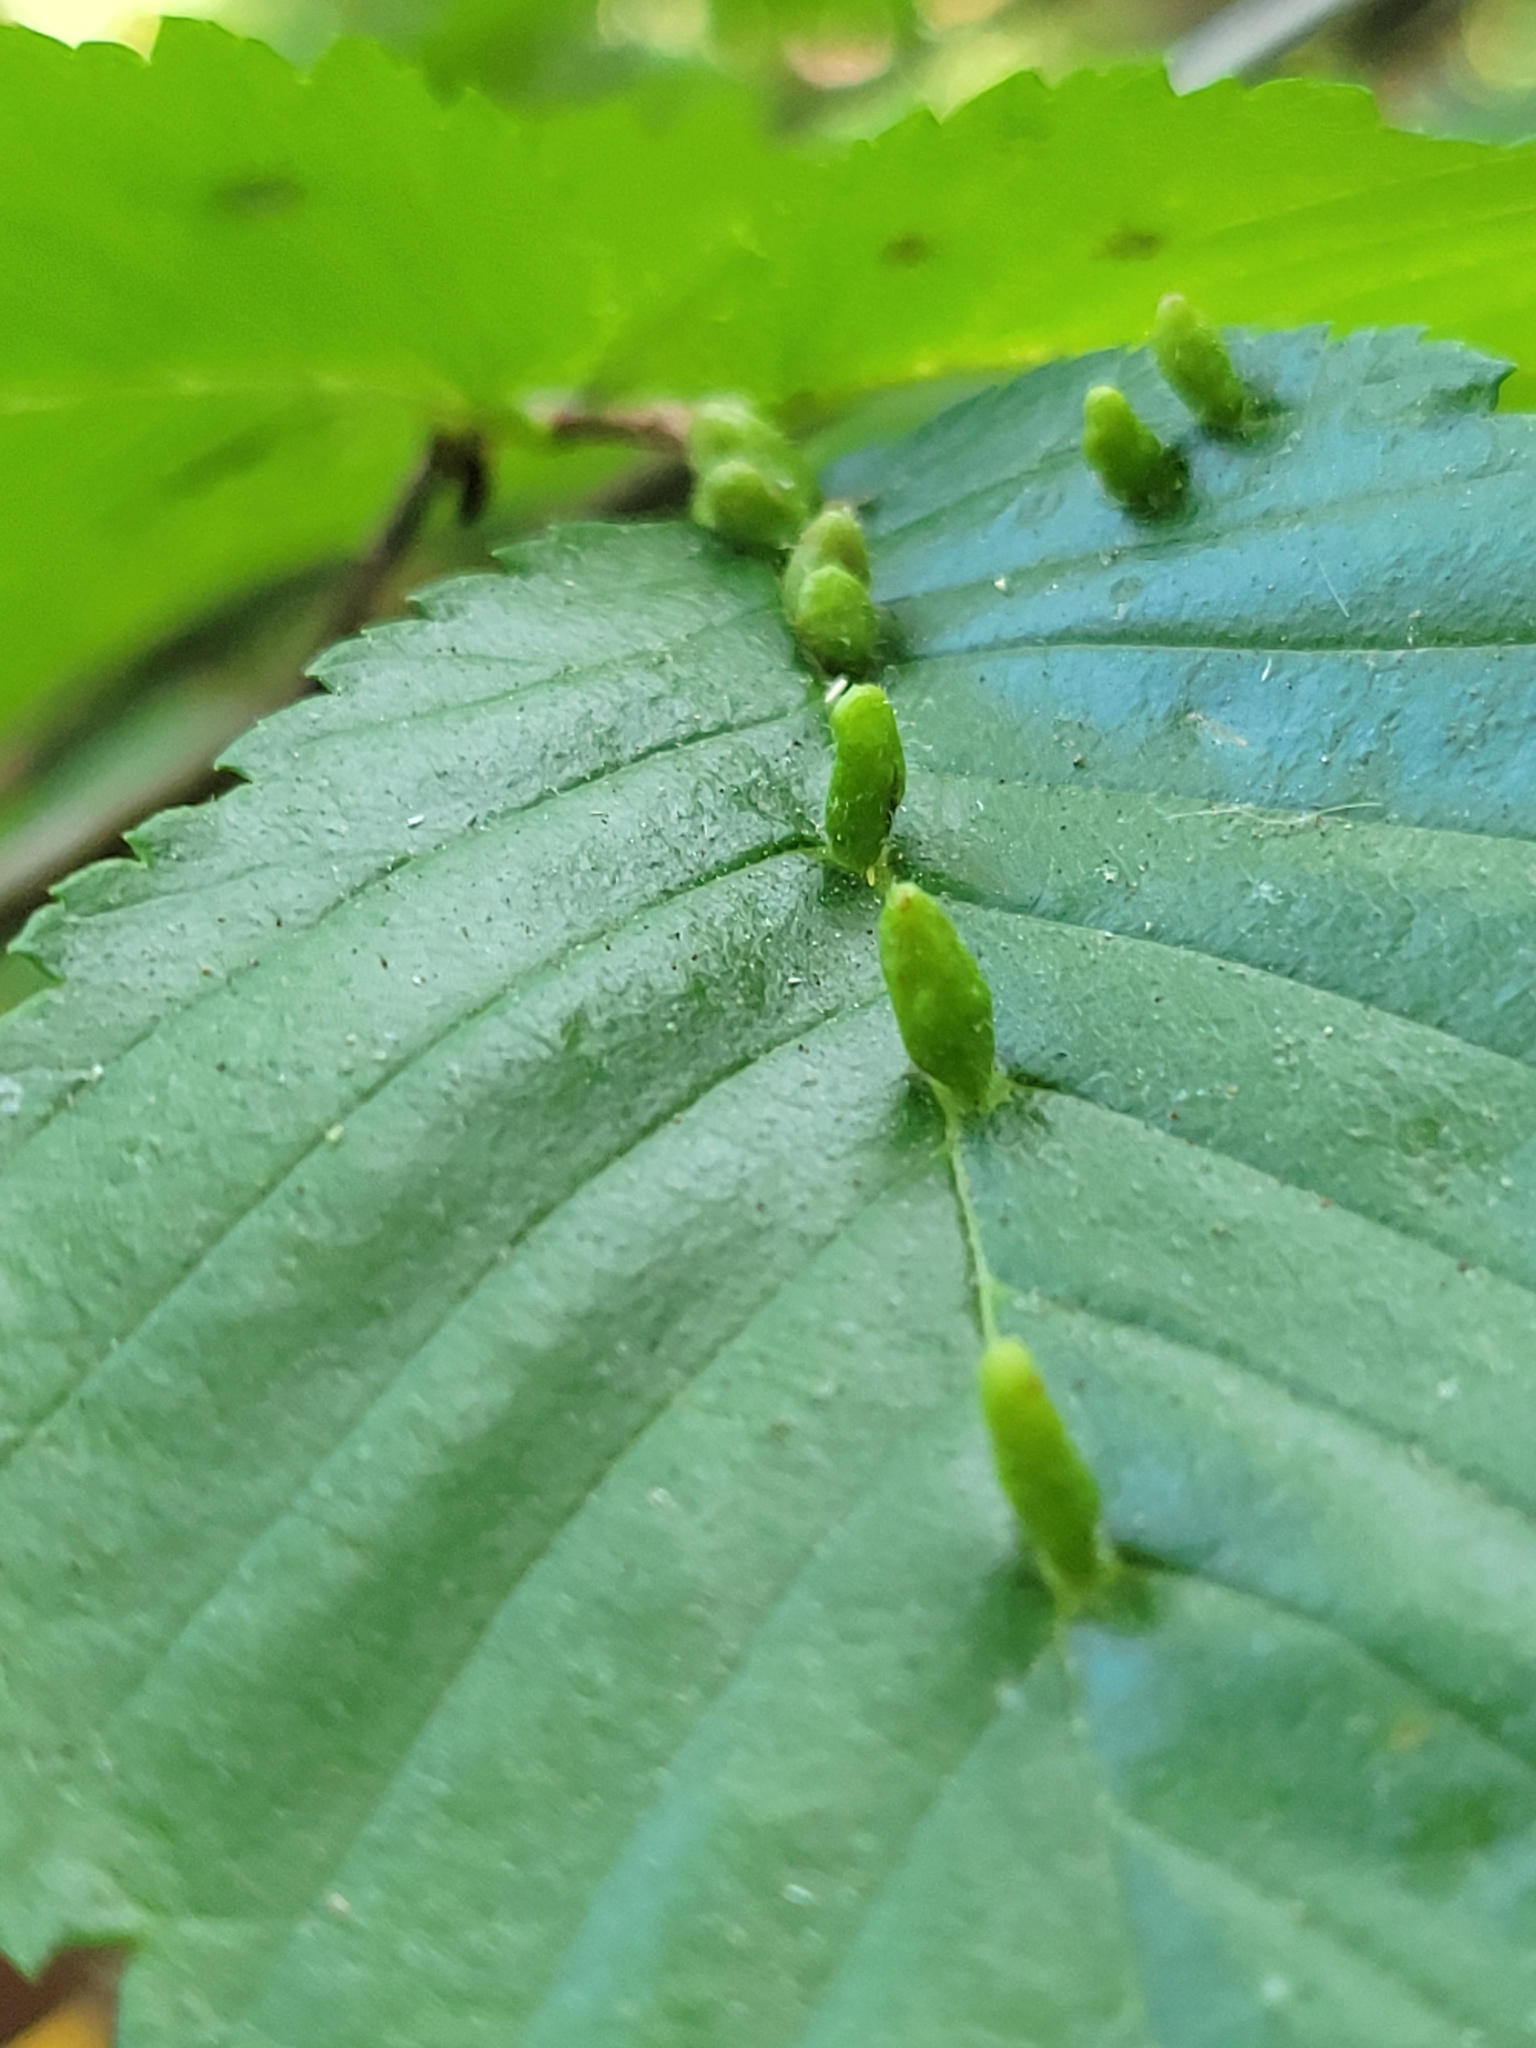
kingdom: Animalia
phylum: Arthropoda
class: Arachnida
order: Trombidiformes
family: Eriophyidae
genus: Aceria
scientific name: Aceria
